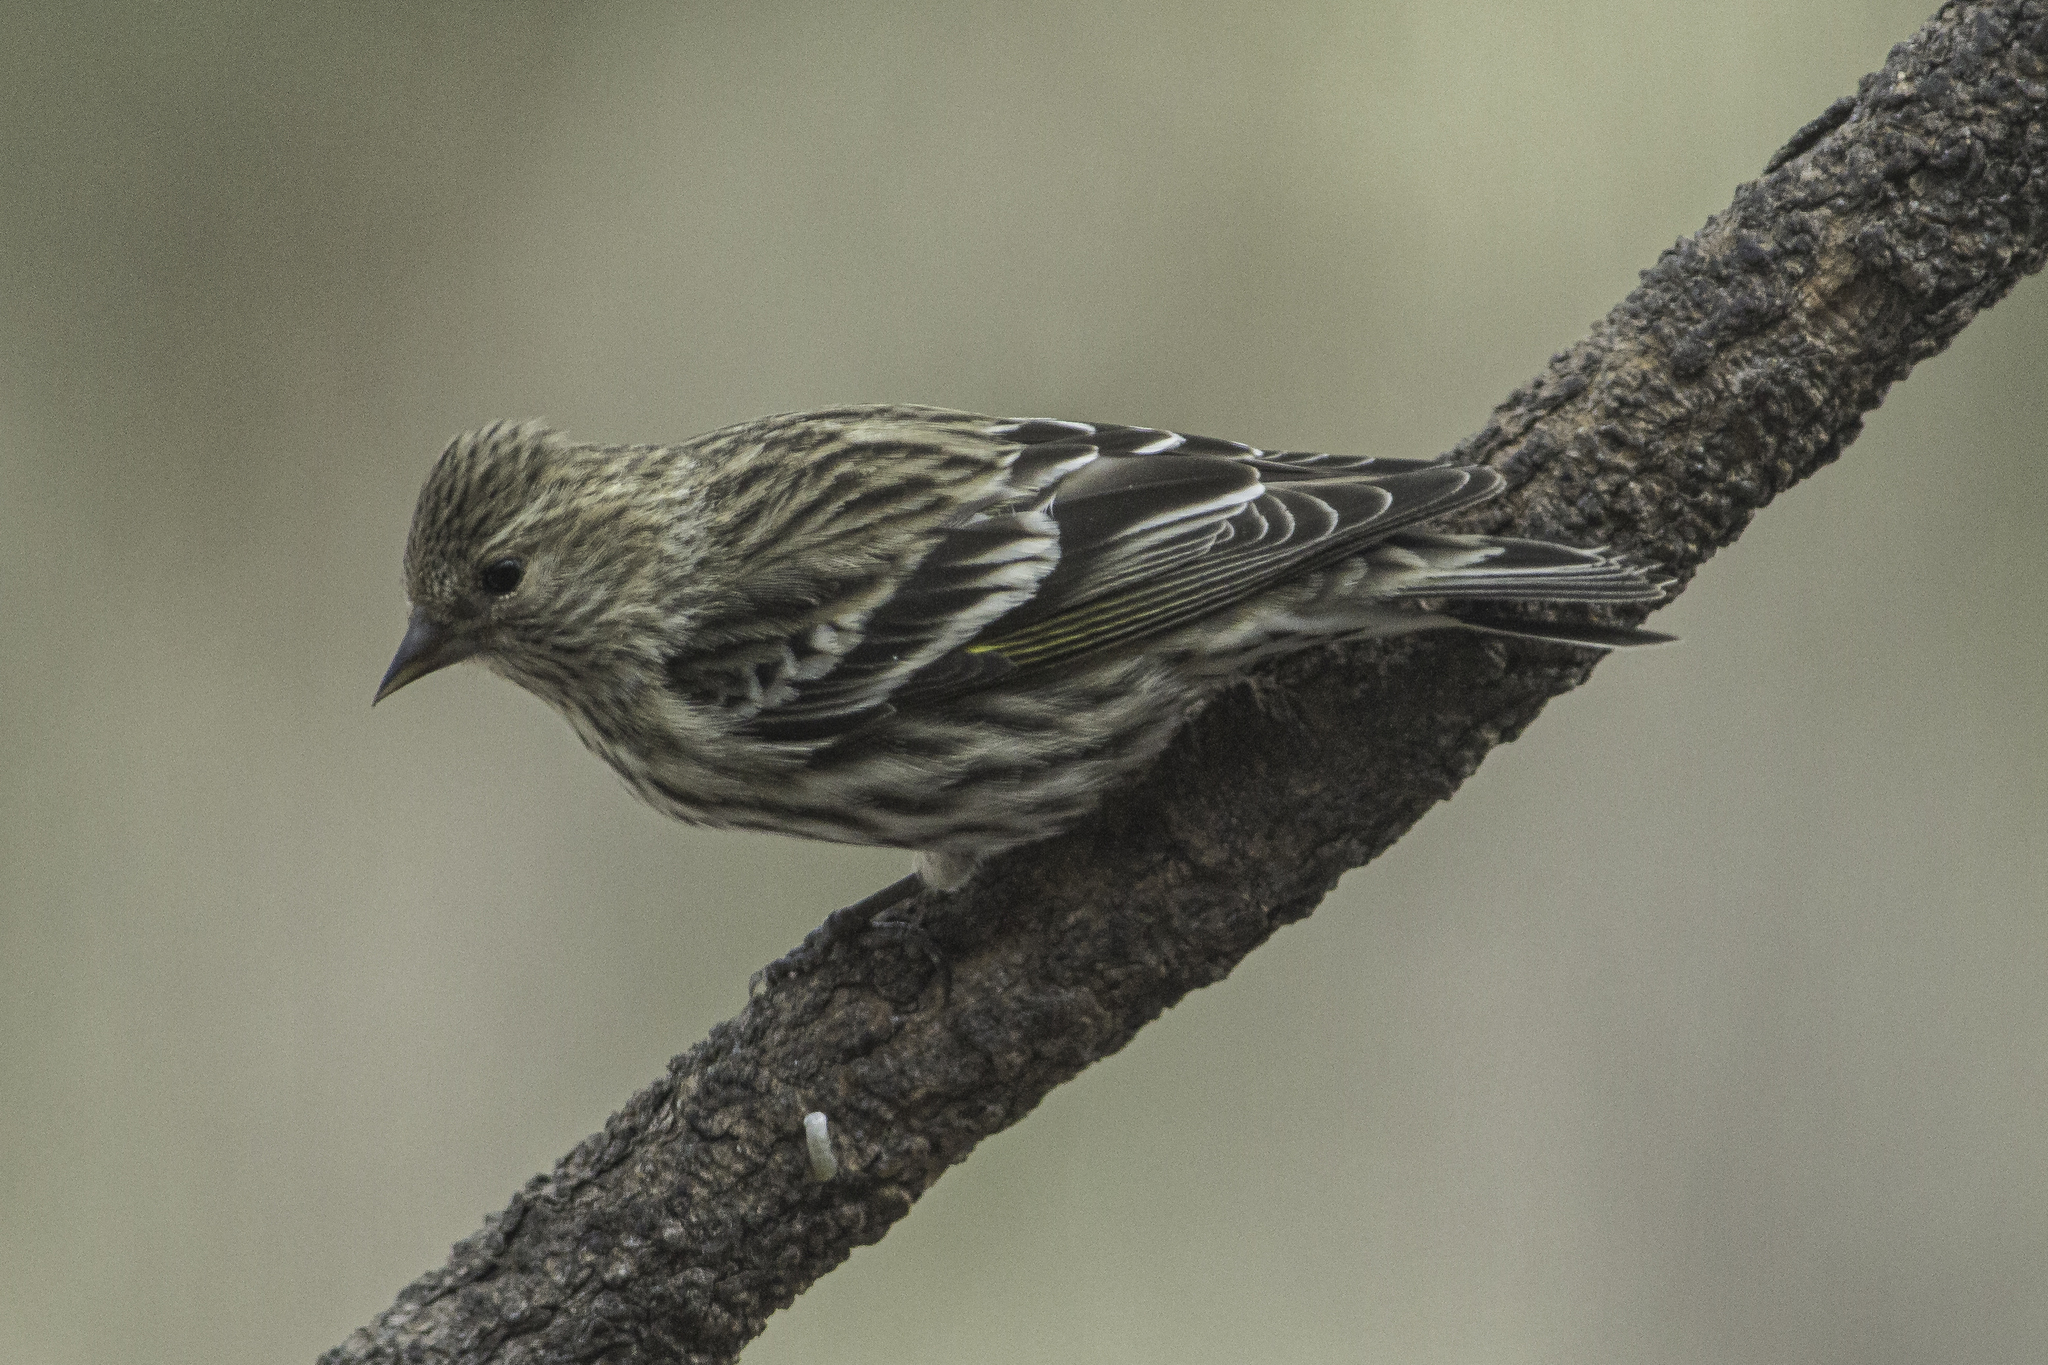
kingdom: Animalia
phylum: Chordata
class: Aves
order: Passeriformes
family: Fringillidae
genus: Spinus
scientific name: Spinus pinus
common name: Pine siskin
